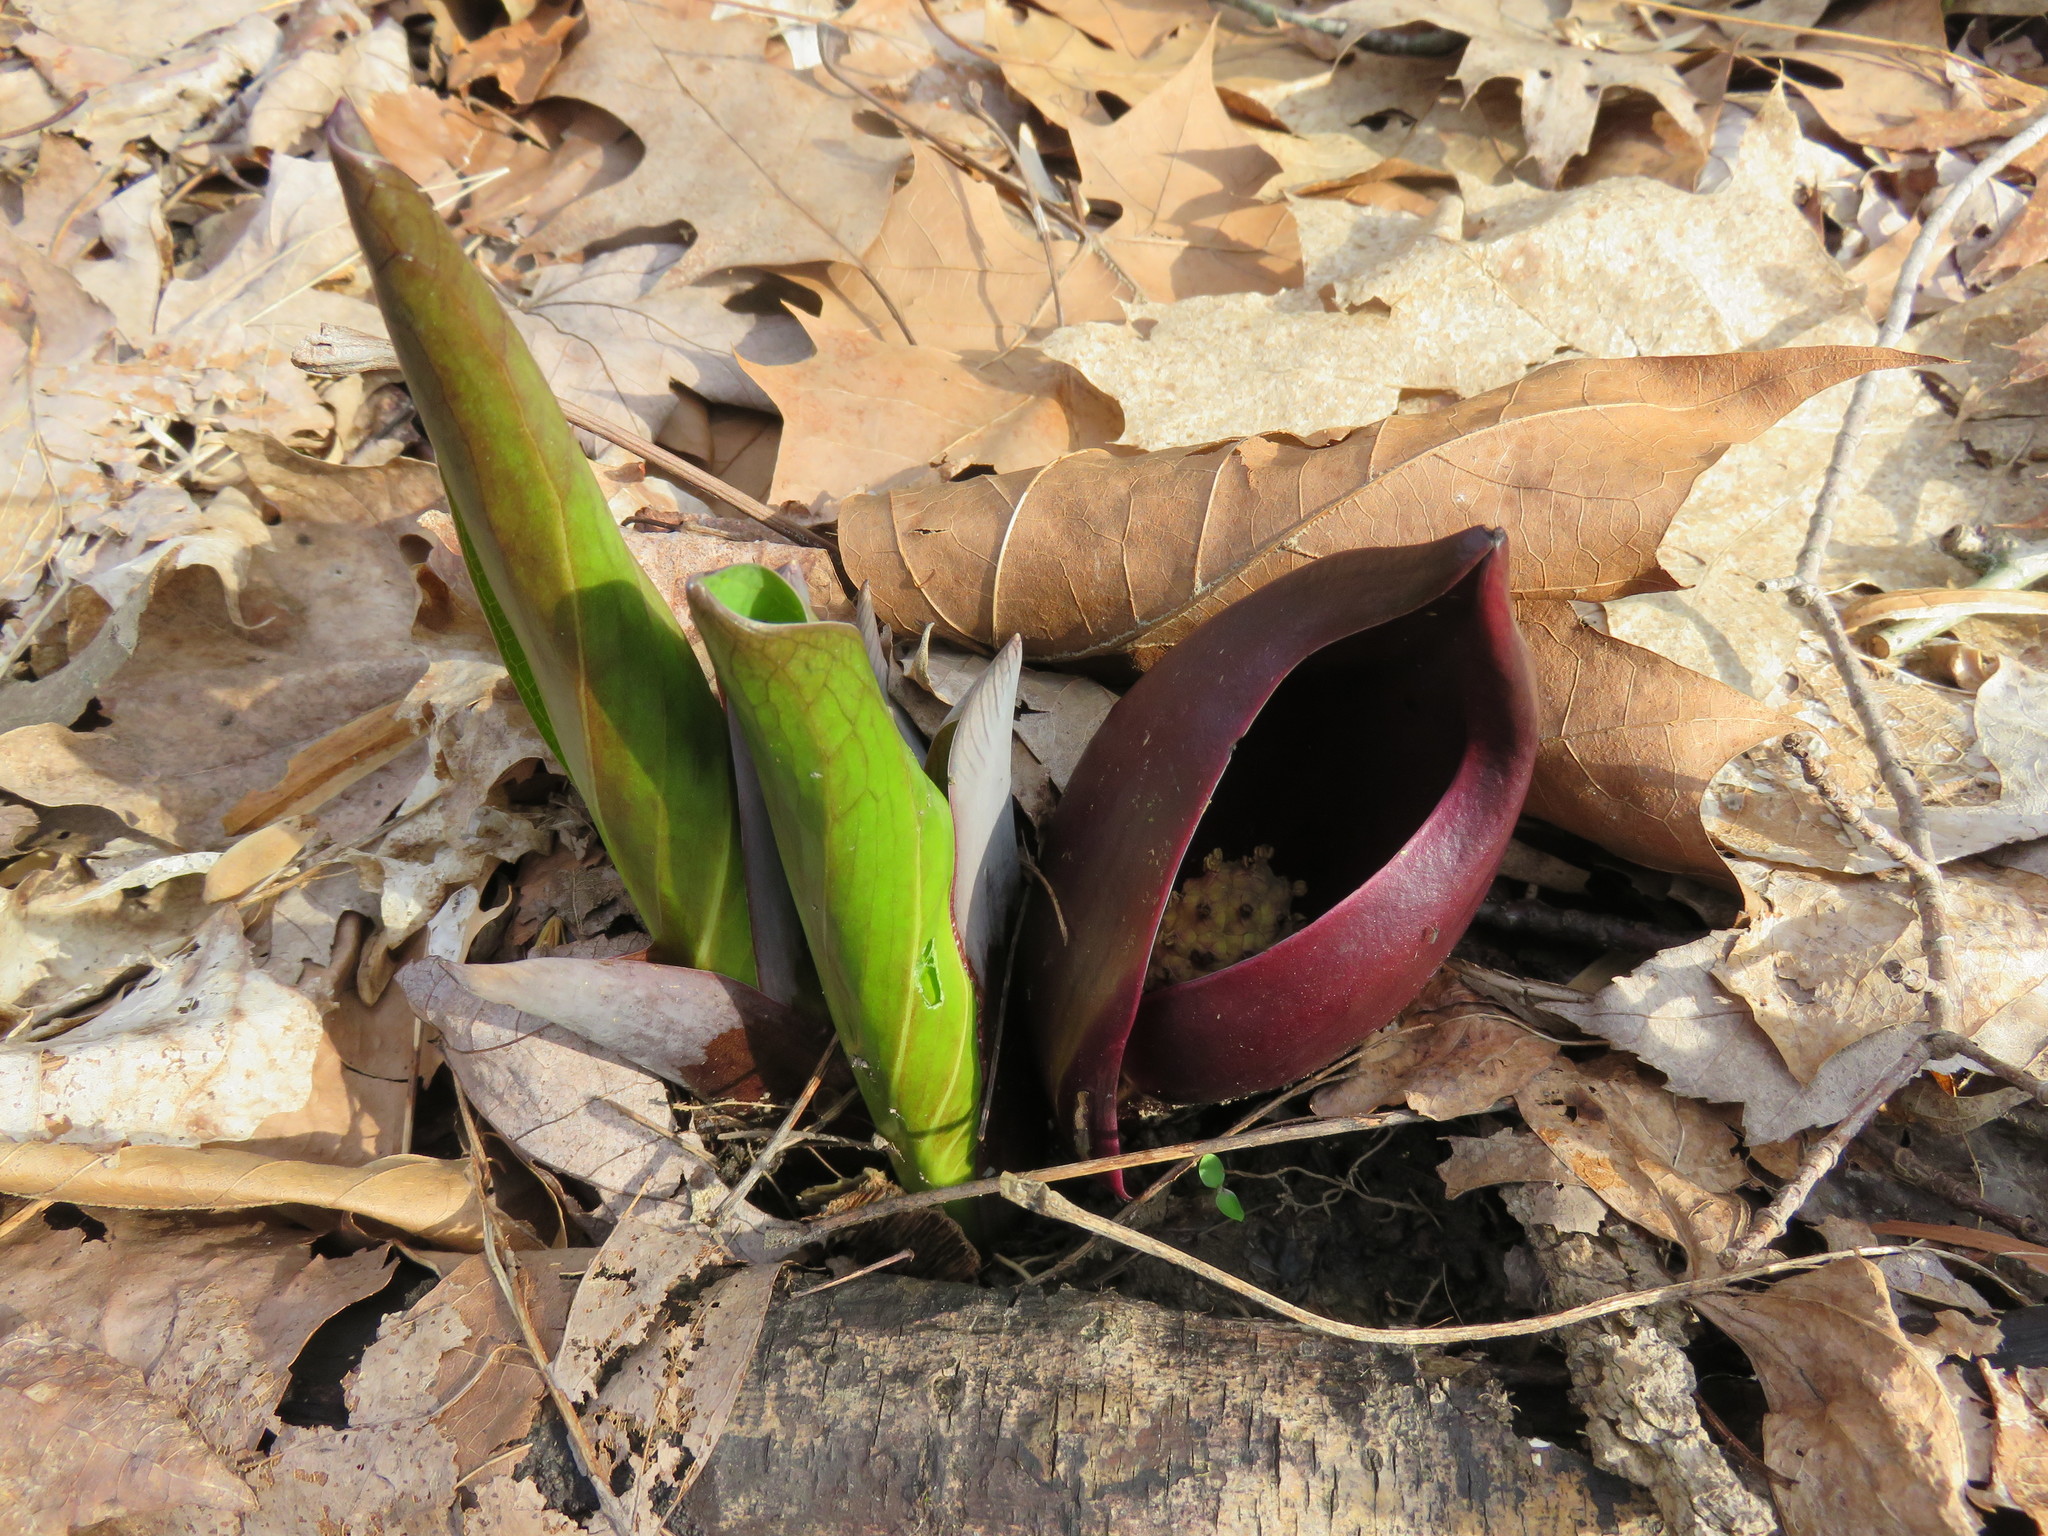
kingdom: Plantae
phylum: Tracheophyta
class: Liliopsida
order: Alismatales
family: Araceae
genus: Symplocarpus
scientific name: Symplocarpus foetidus
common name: Eastern skunk cabbage
